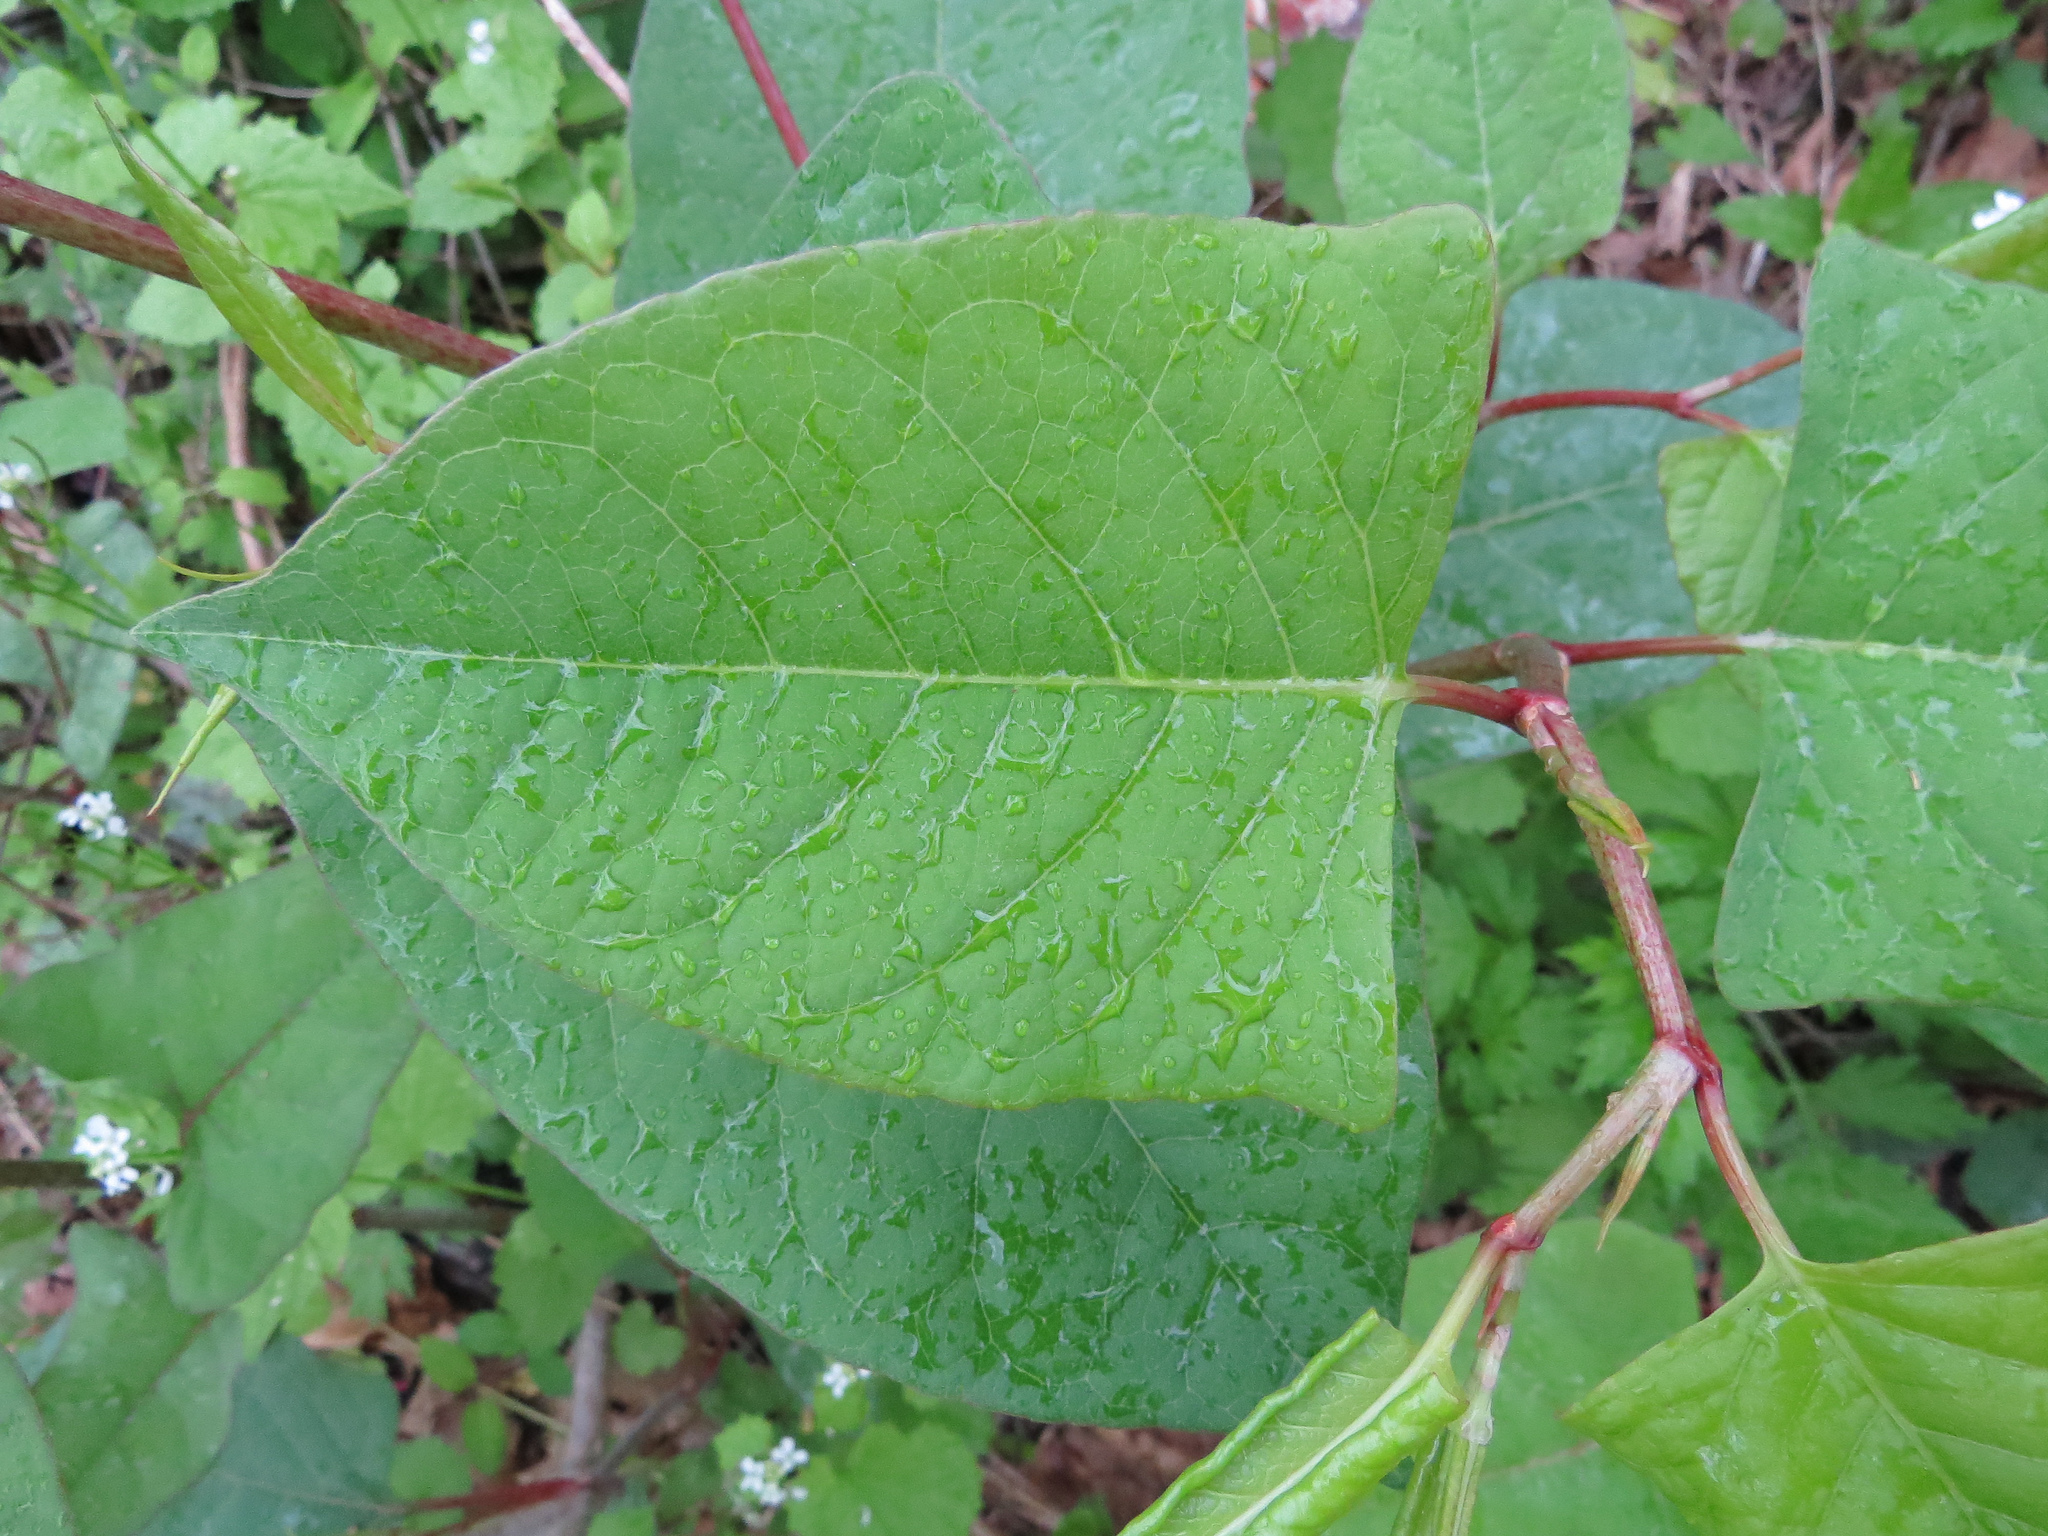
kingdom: Plantae
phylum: Tracheophyta
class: Magnoliopsida
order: Caryophyllales
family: Polygonaceae
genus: Reynoutria
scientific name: Reynoutria japonica
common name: Japanese knotweed
